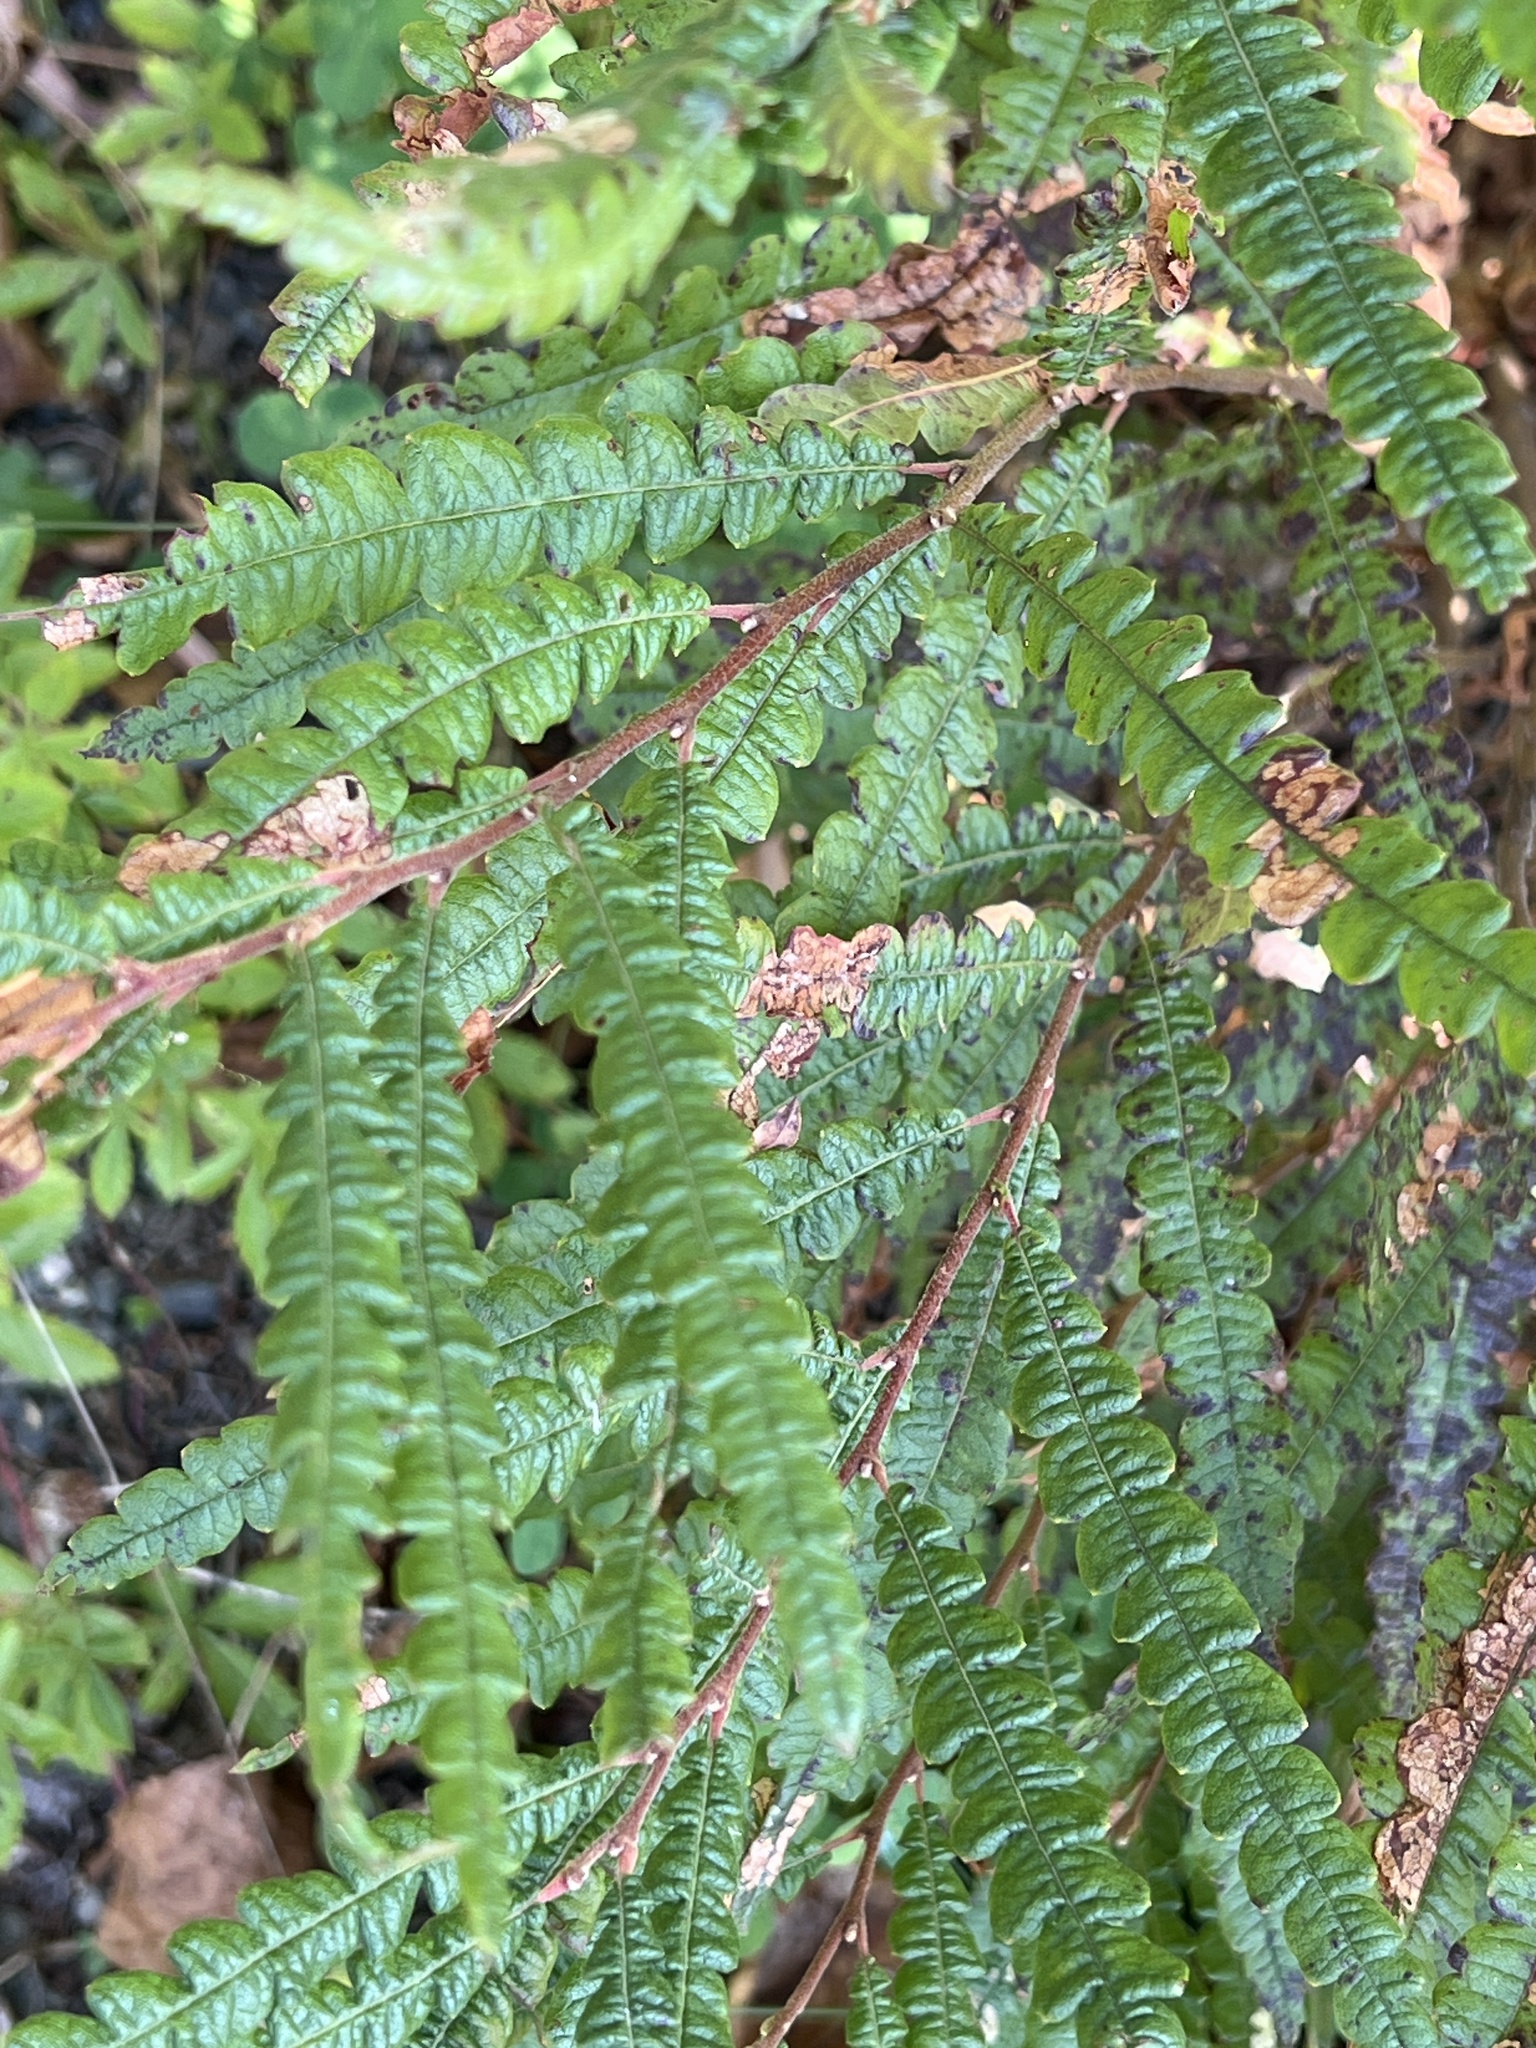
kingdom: Plantae
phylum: Tracheophyta
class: Magnoliopsida
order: Fagales
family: Myricaceae
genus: Comptonia
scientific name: Comptonia peregrina
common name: Sweet-fern
